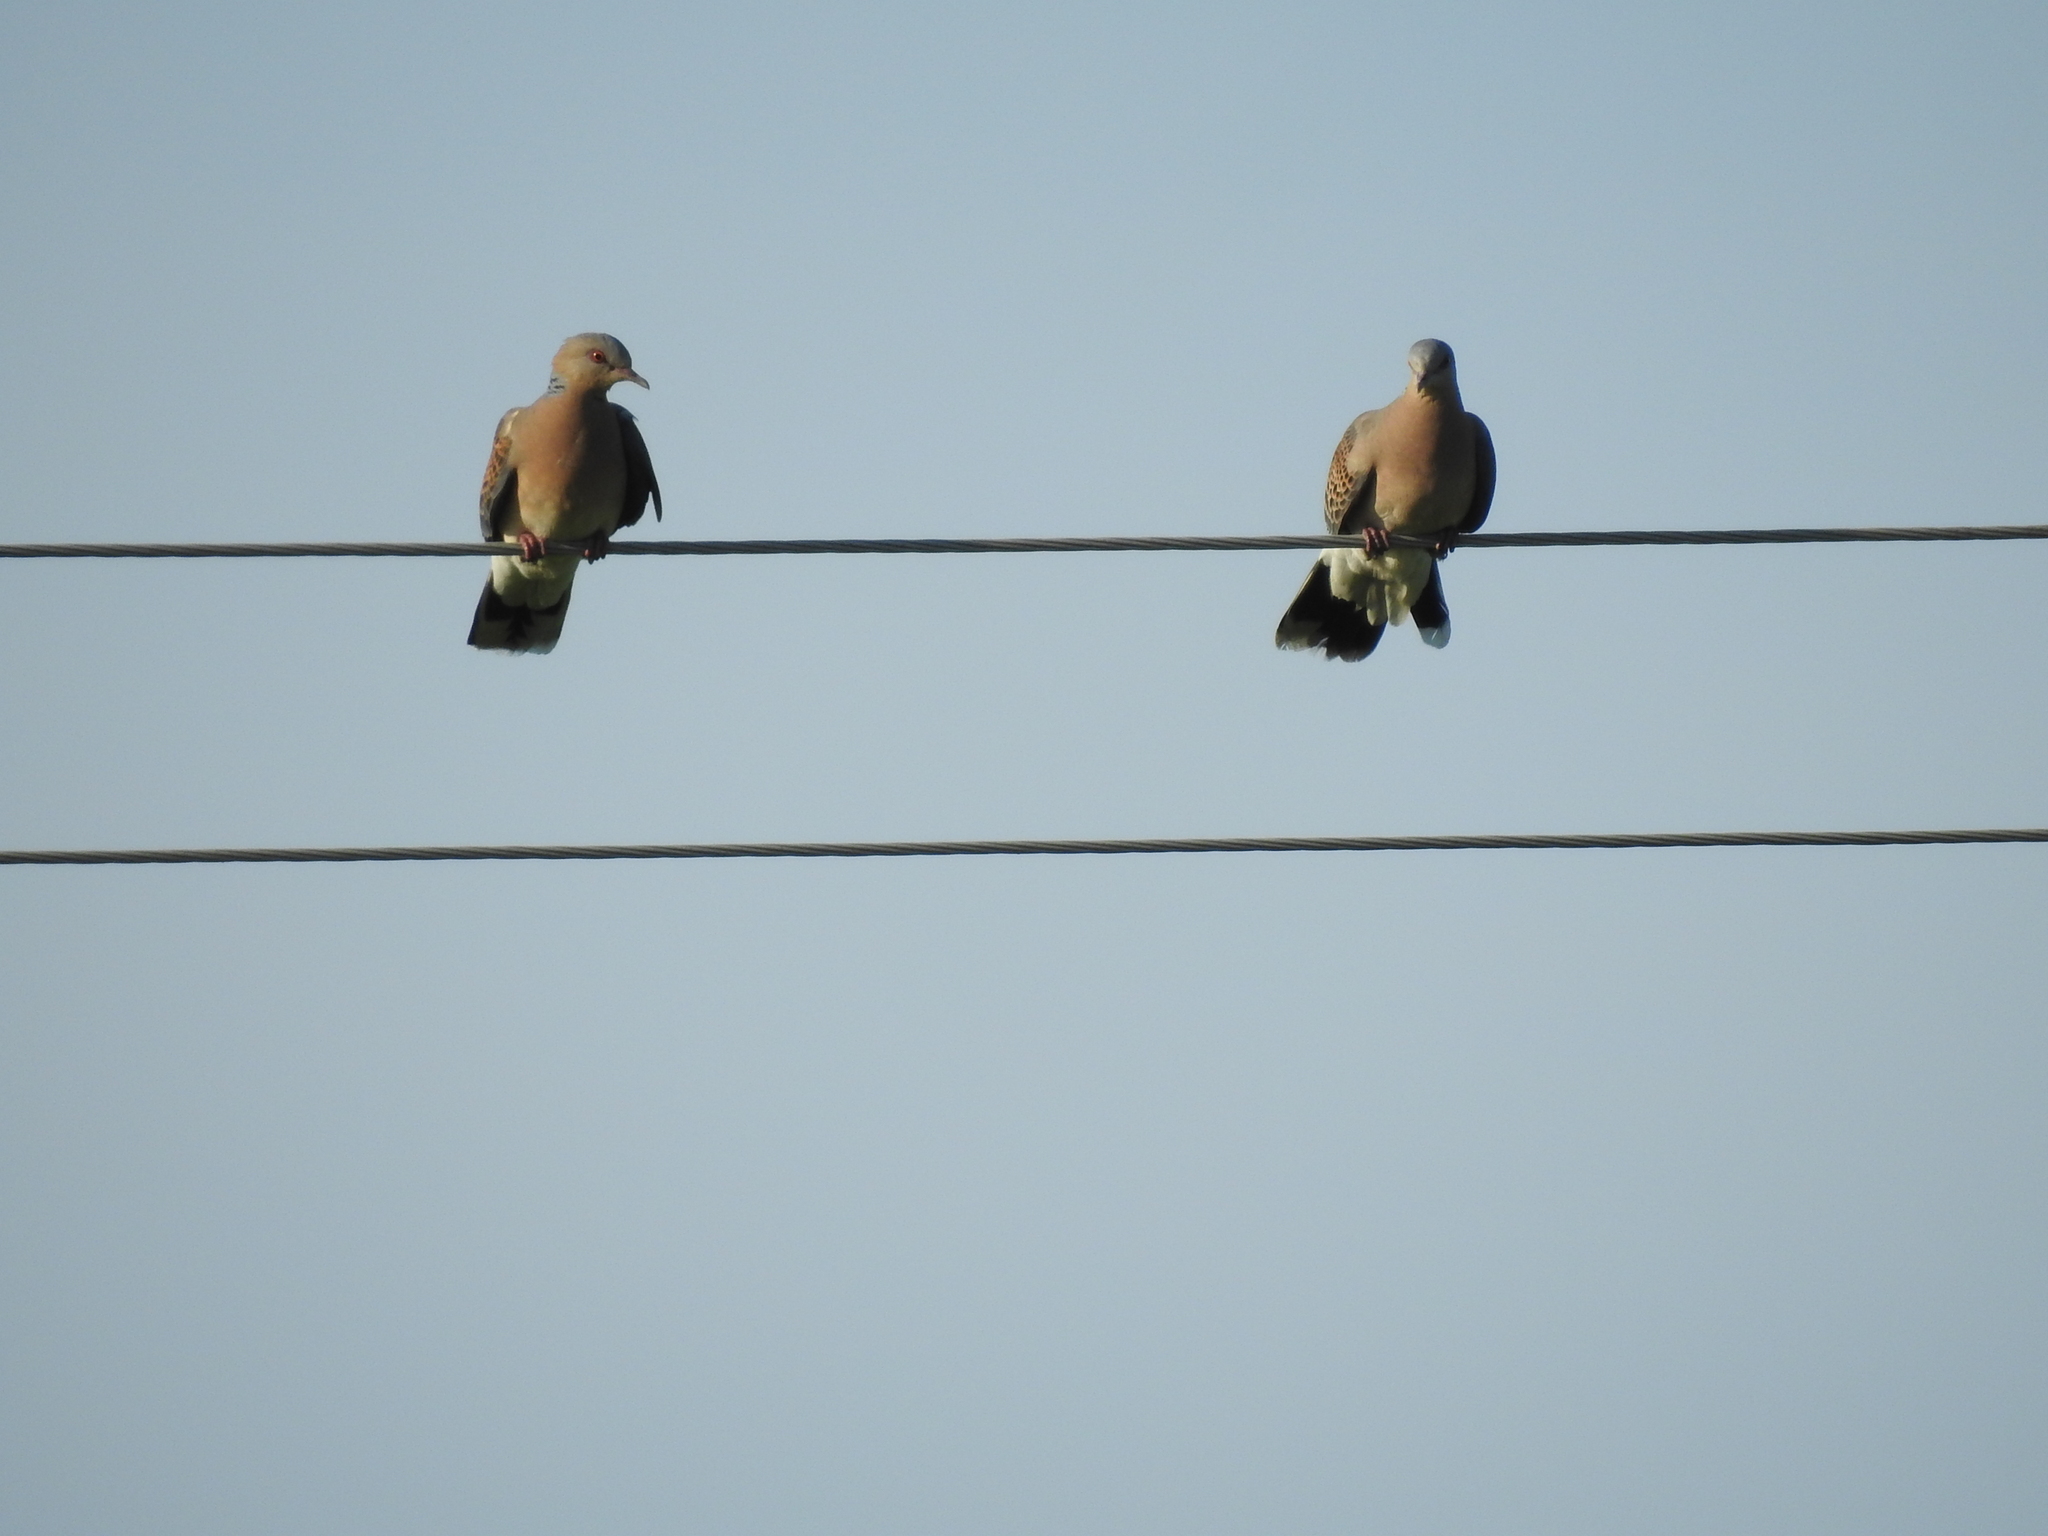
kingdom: Animalia
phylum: Chordata
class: Aves
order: Columbiformes
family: Columbidae
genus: Streptopelia
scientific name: Streptopelia orientalis
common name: Oriental turtle dove
